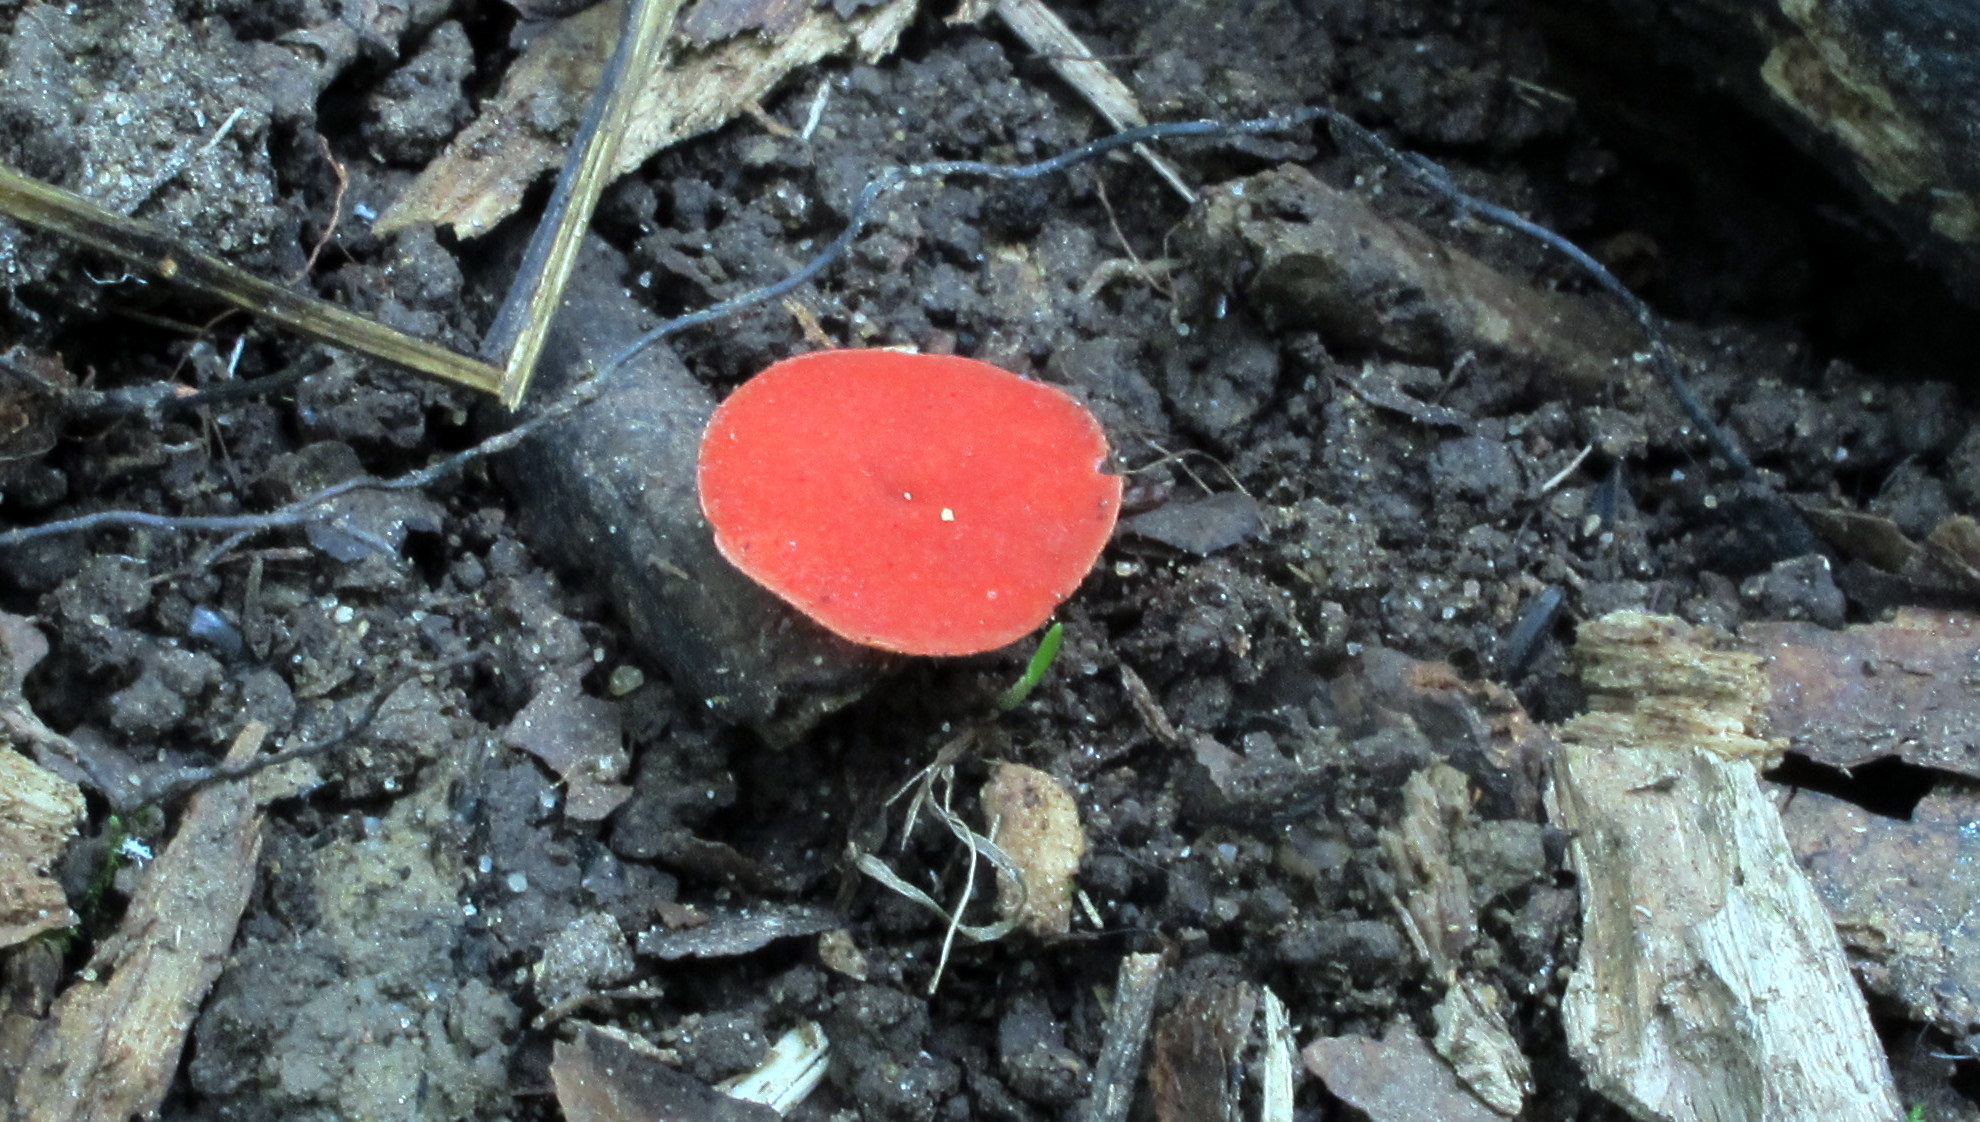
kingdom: Fungi
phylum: Ascomycota
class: Pezizomycetes
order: Pezizales
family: Sarcoscyphaceae
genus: Sarcoscypha
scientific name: Sarcoscypha occidentalis
